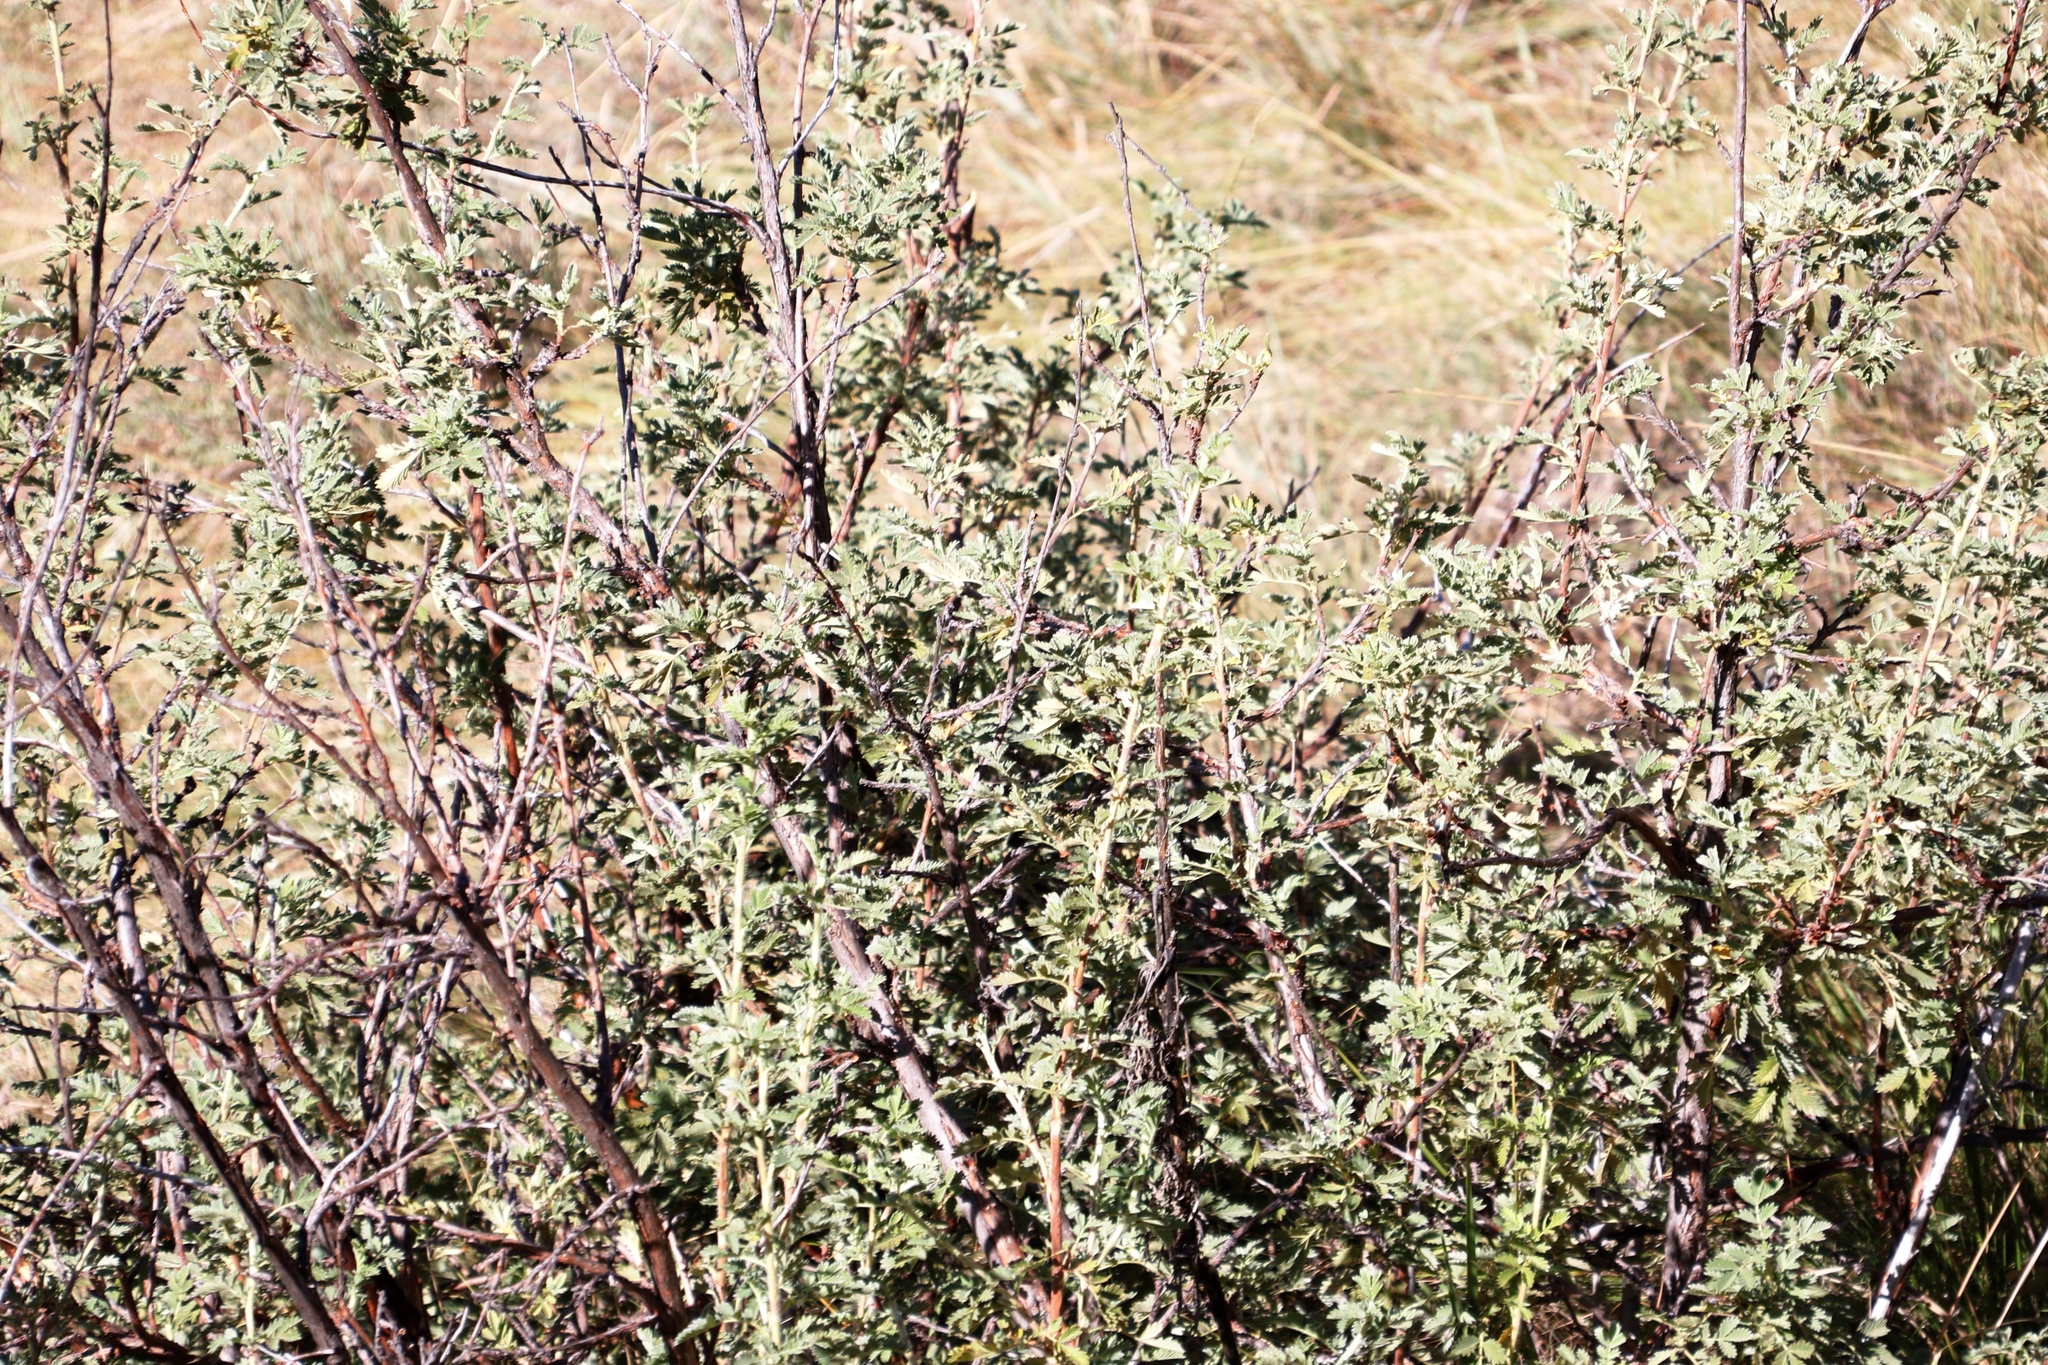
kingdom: Plantae
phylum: Tracheophyta
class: Magnoliopsida
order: Rosales
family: Rosaceae
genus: Leucosidea
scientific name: Leucosidea sericea
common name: Oldwood
